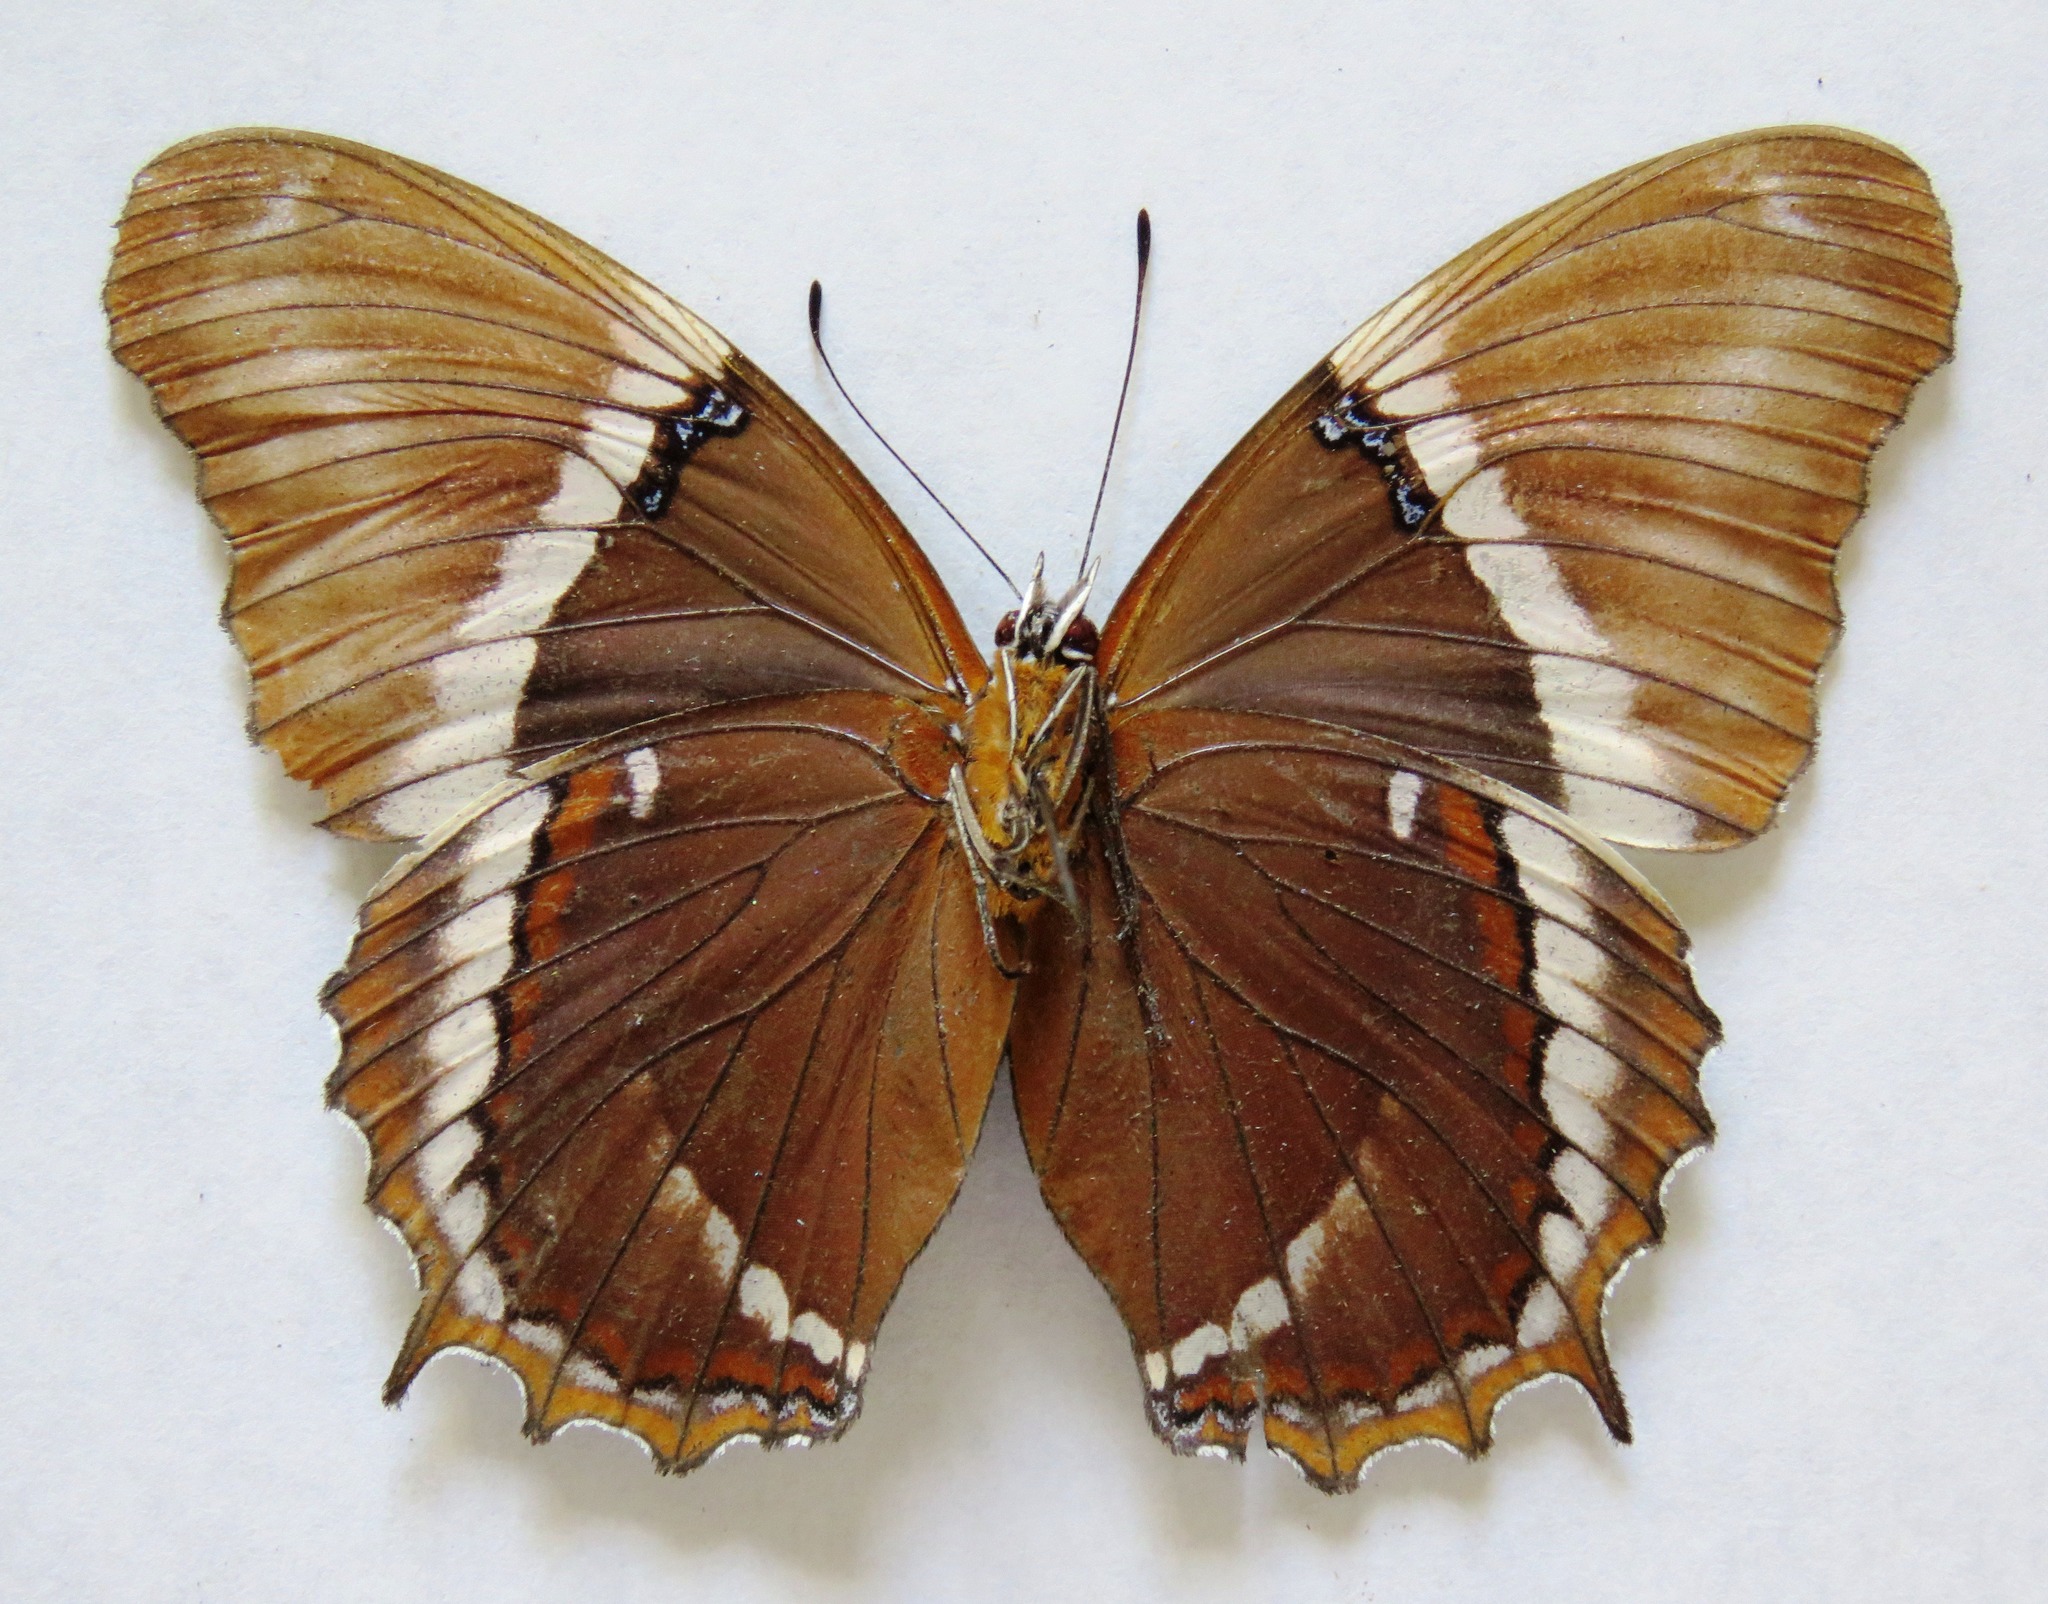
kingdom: Animalia
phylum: Arthropoda
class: Insecta
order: Lepidoptera
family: Nymphalidae
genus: Siproeta
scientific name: Siproeta epaphus
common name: Rusty-tipped page
